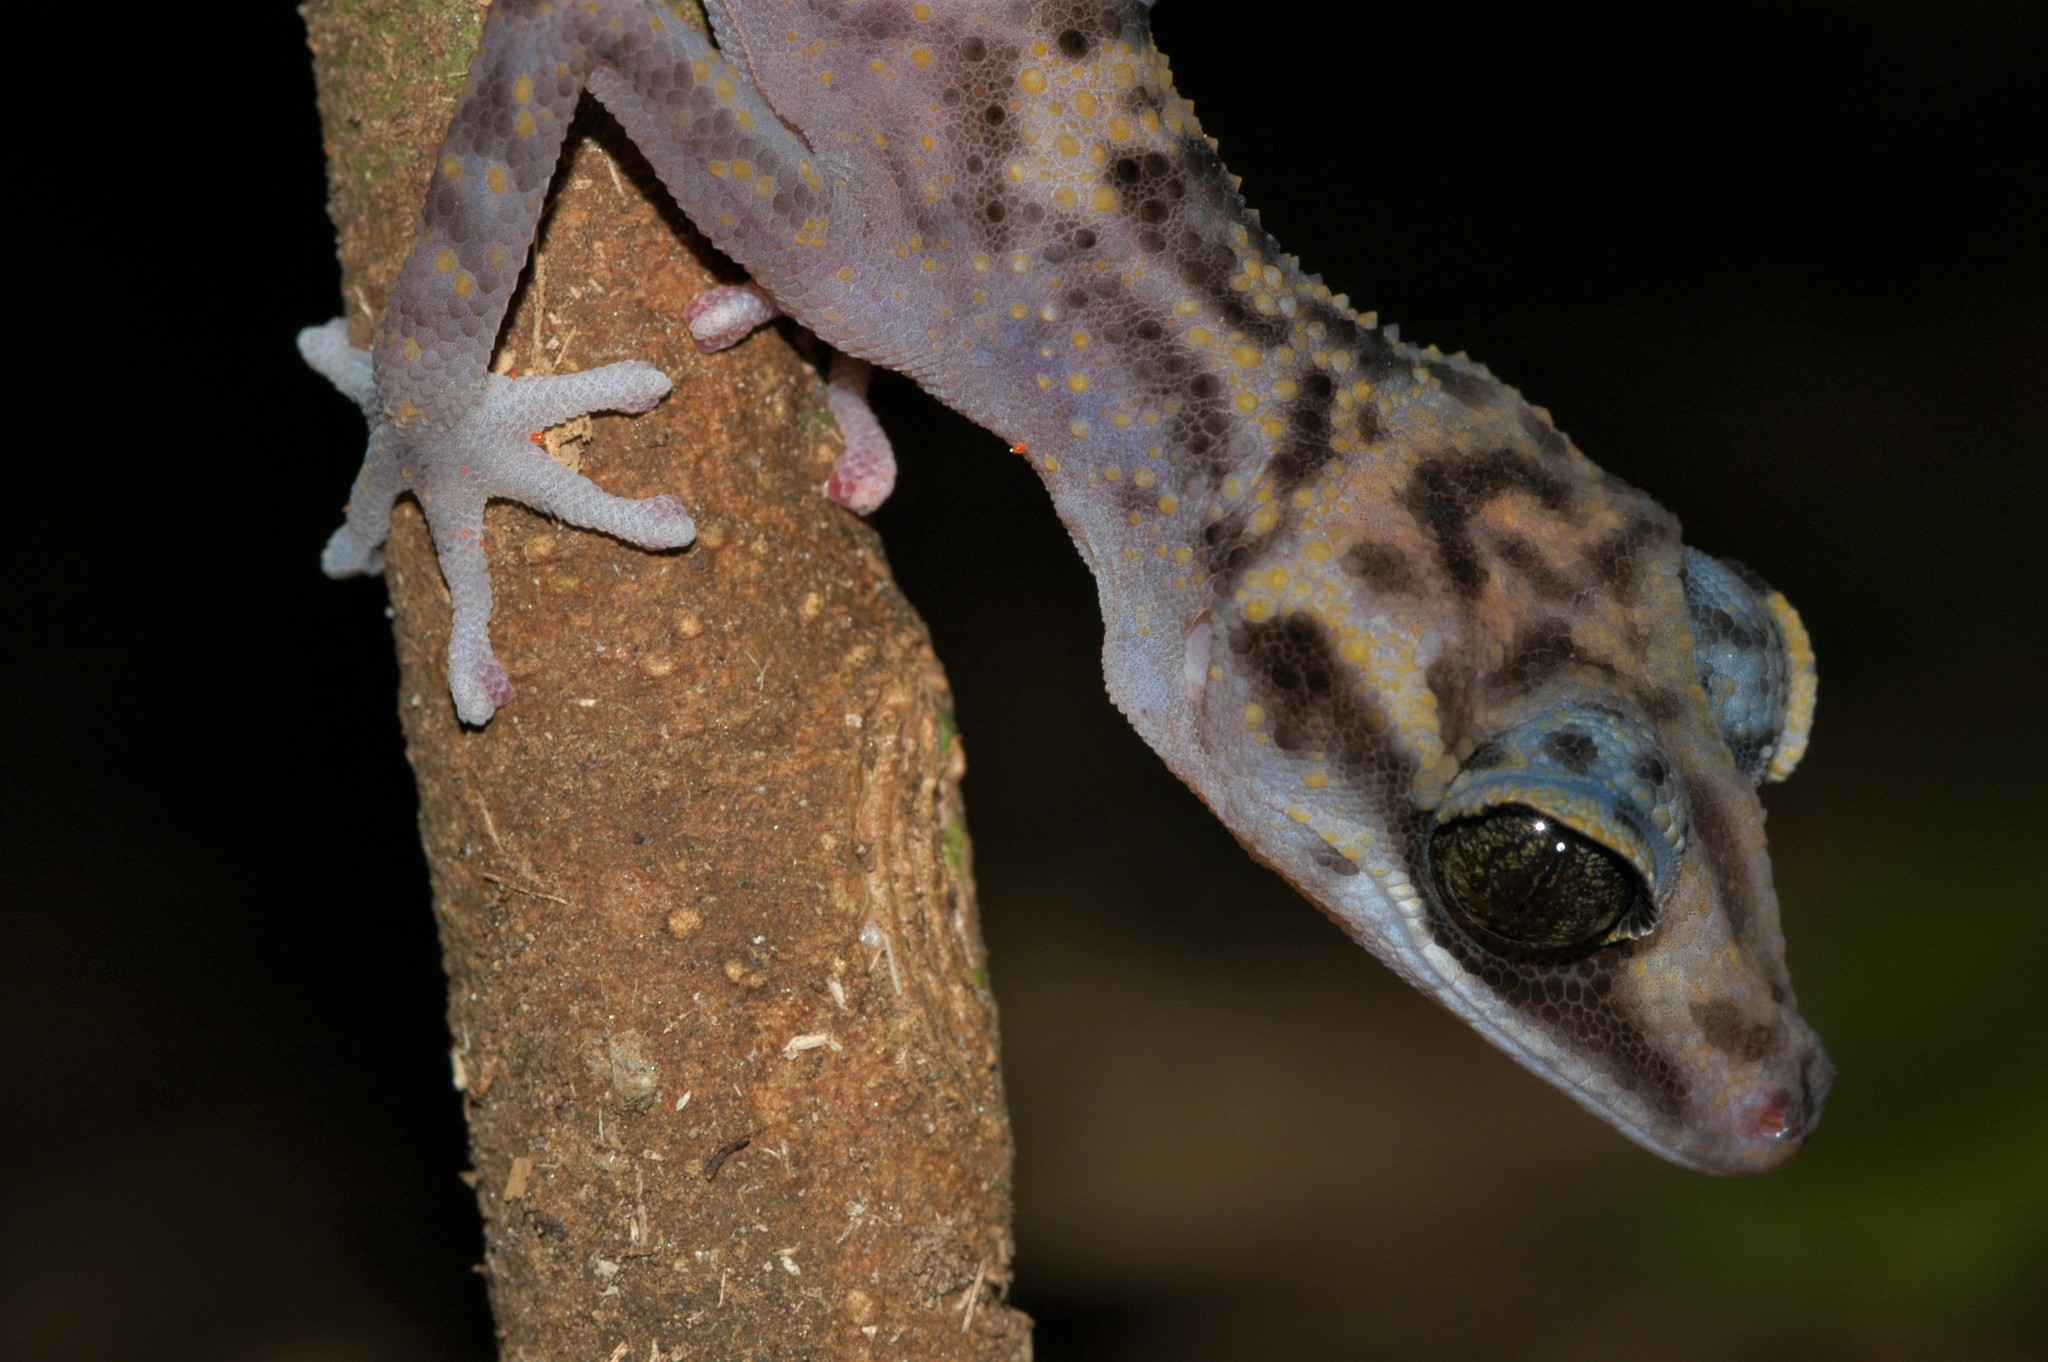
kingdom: Animalia
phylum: Chordata
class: Squamata
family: Gekkonidae
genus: Paroedura
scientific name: Paroedura gracilis
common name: Graceful madagascar ground gecko
